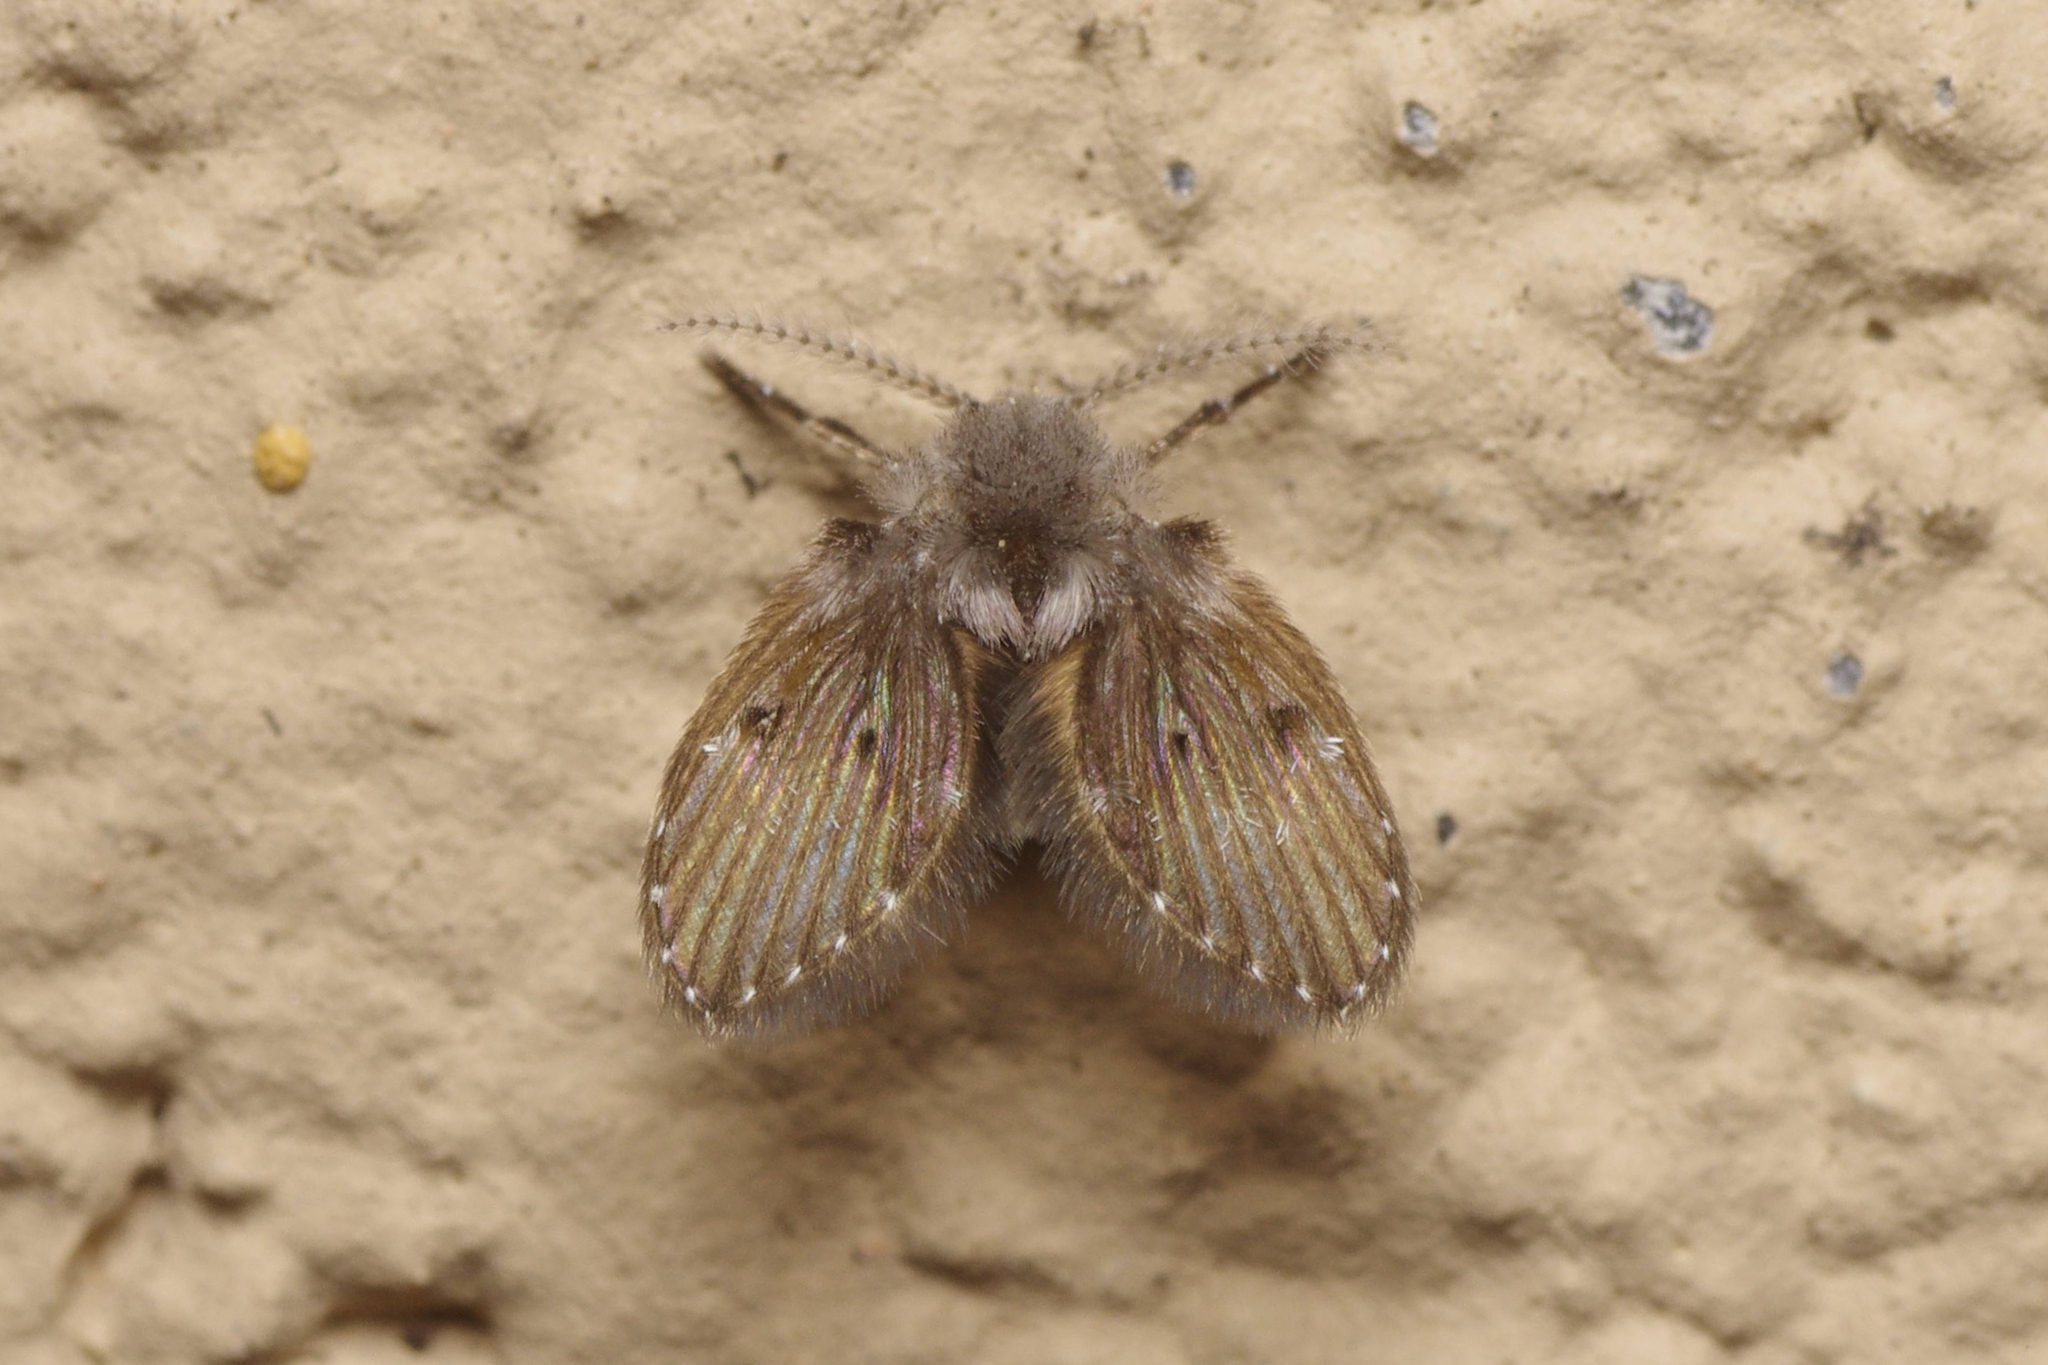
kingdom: Animalia
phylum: Arthropoda
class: Insecta
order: Diptera
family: Psychodidae
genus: Clogmia
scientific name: Clogmia albipunctatus
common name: White-spotted moth fly
